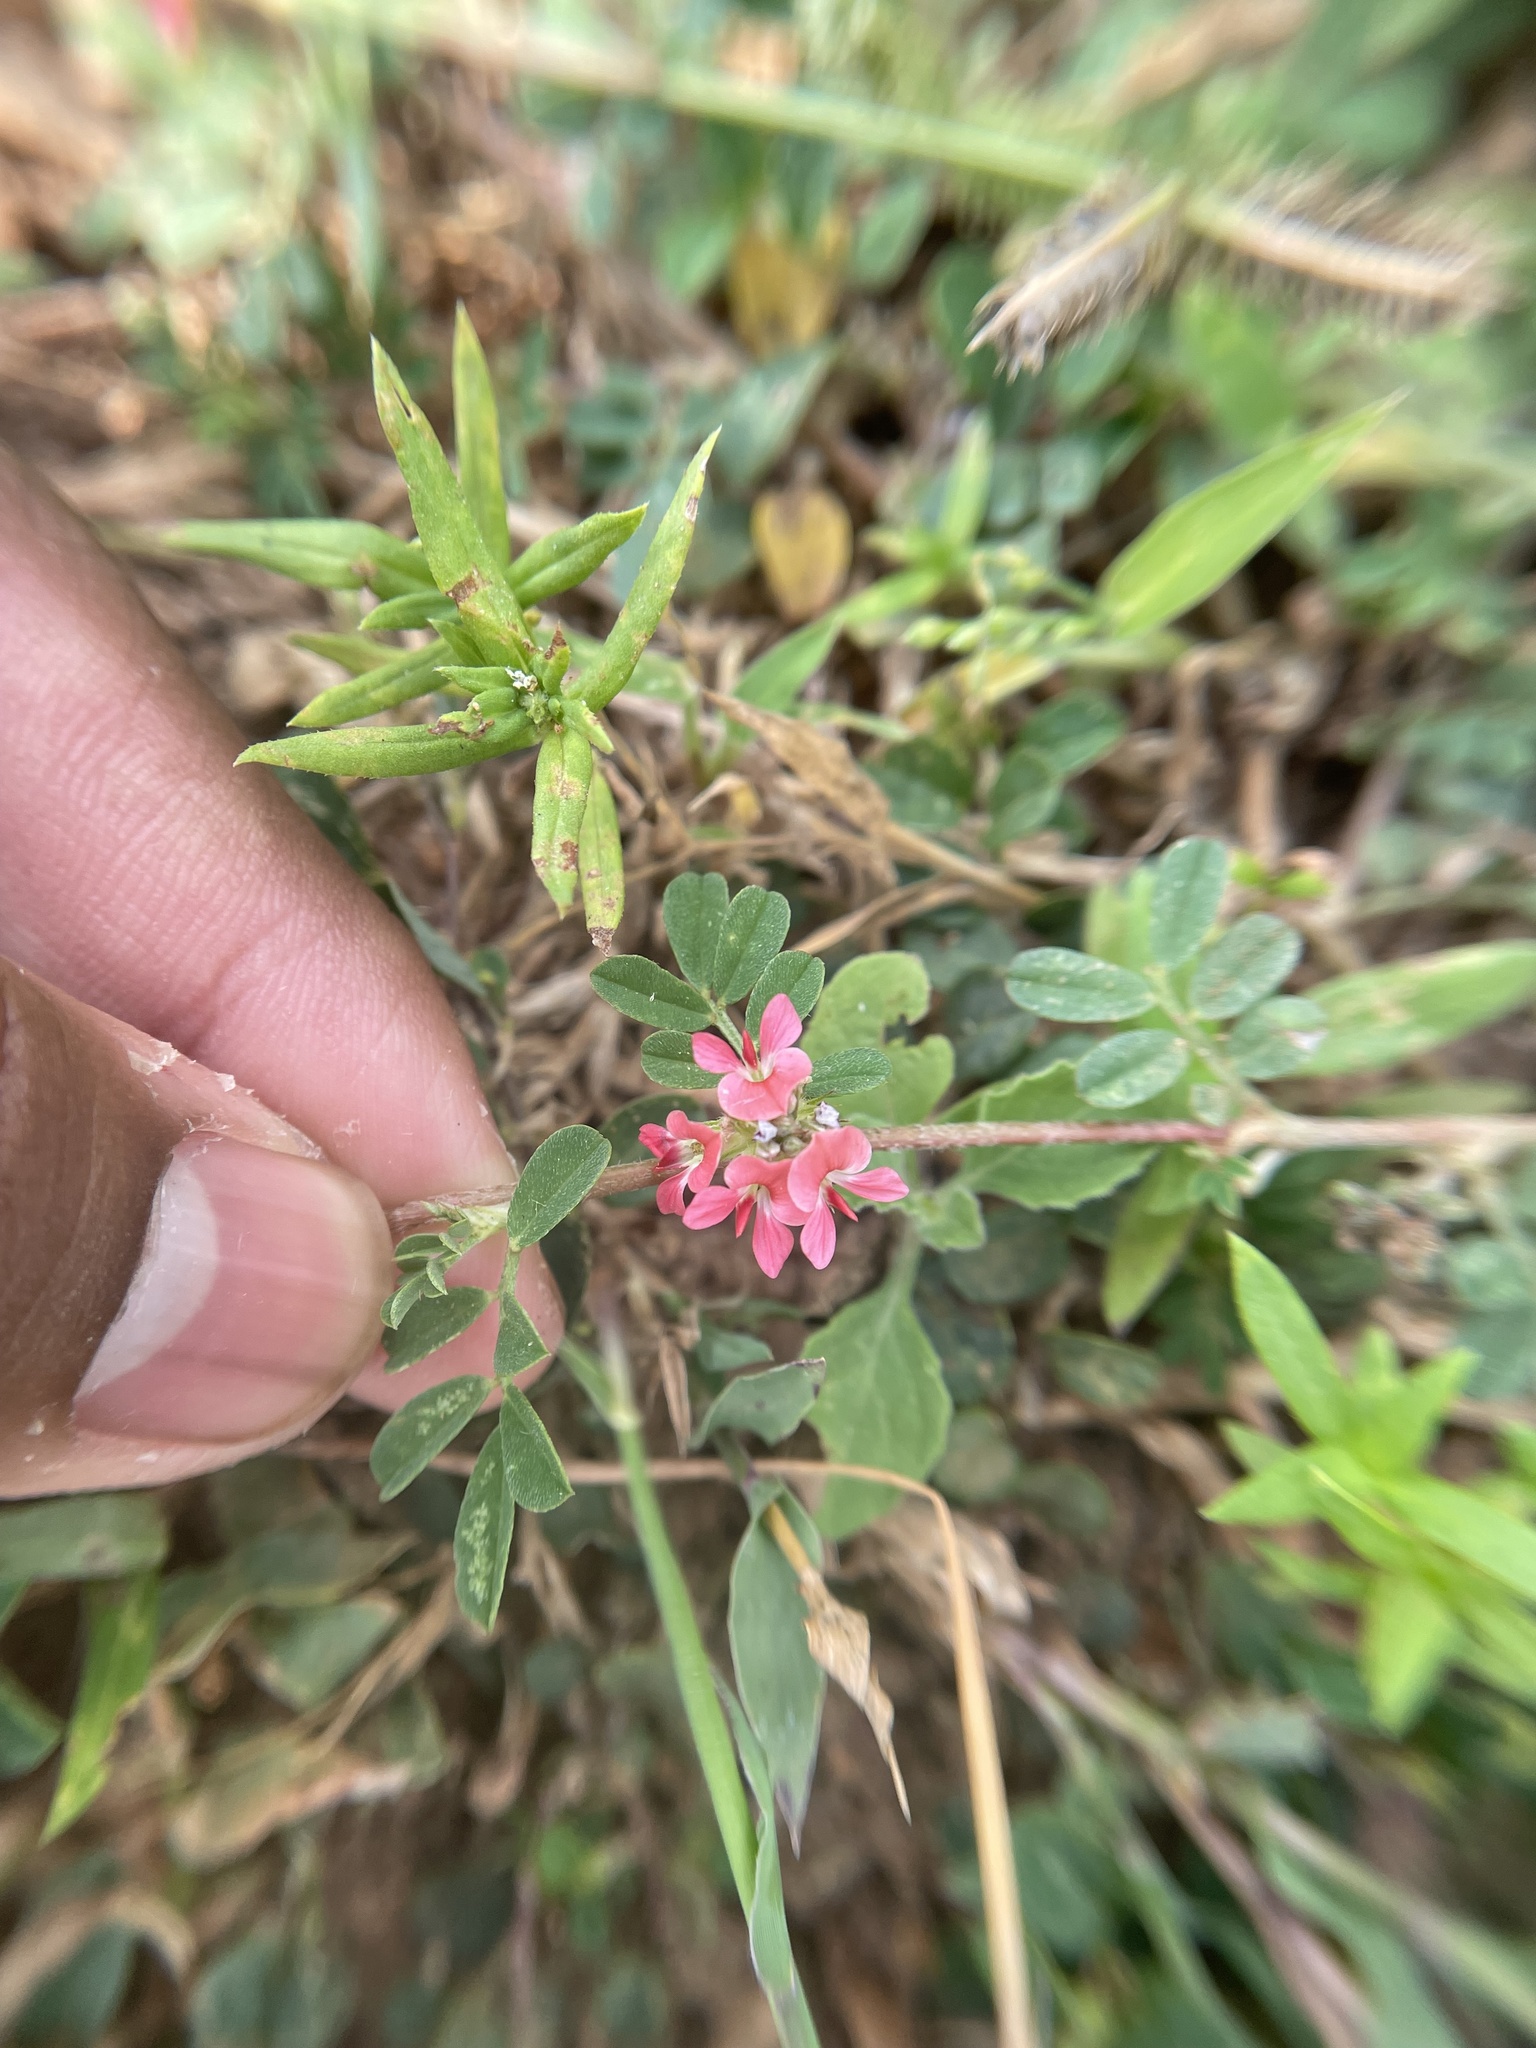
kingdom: Plantae
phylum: Tracheophyta
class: Magnoliopsida
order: Fabales
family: Fabaceae
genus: Indigofera
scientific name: Indigofera linnaei
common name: Nine-leaf indigo
